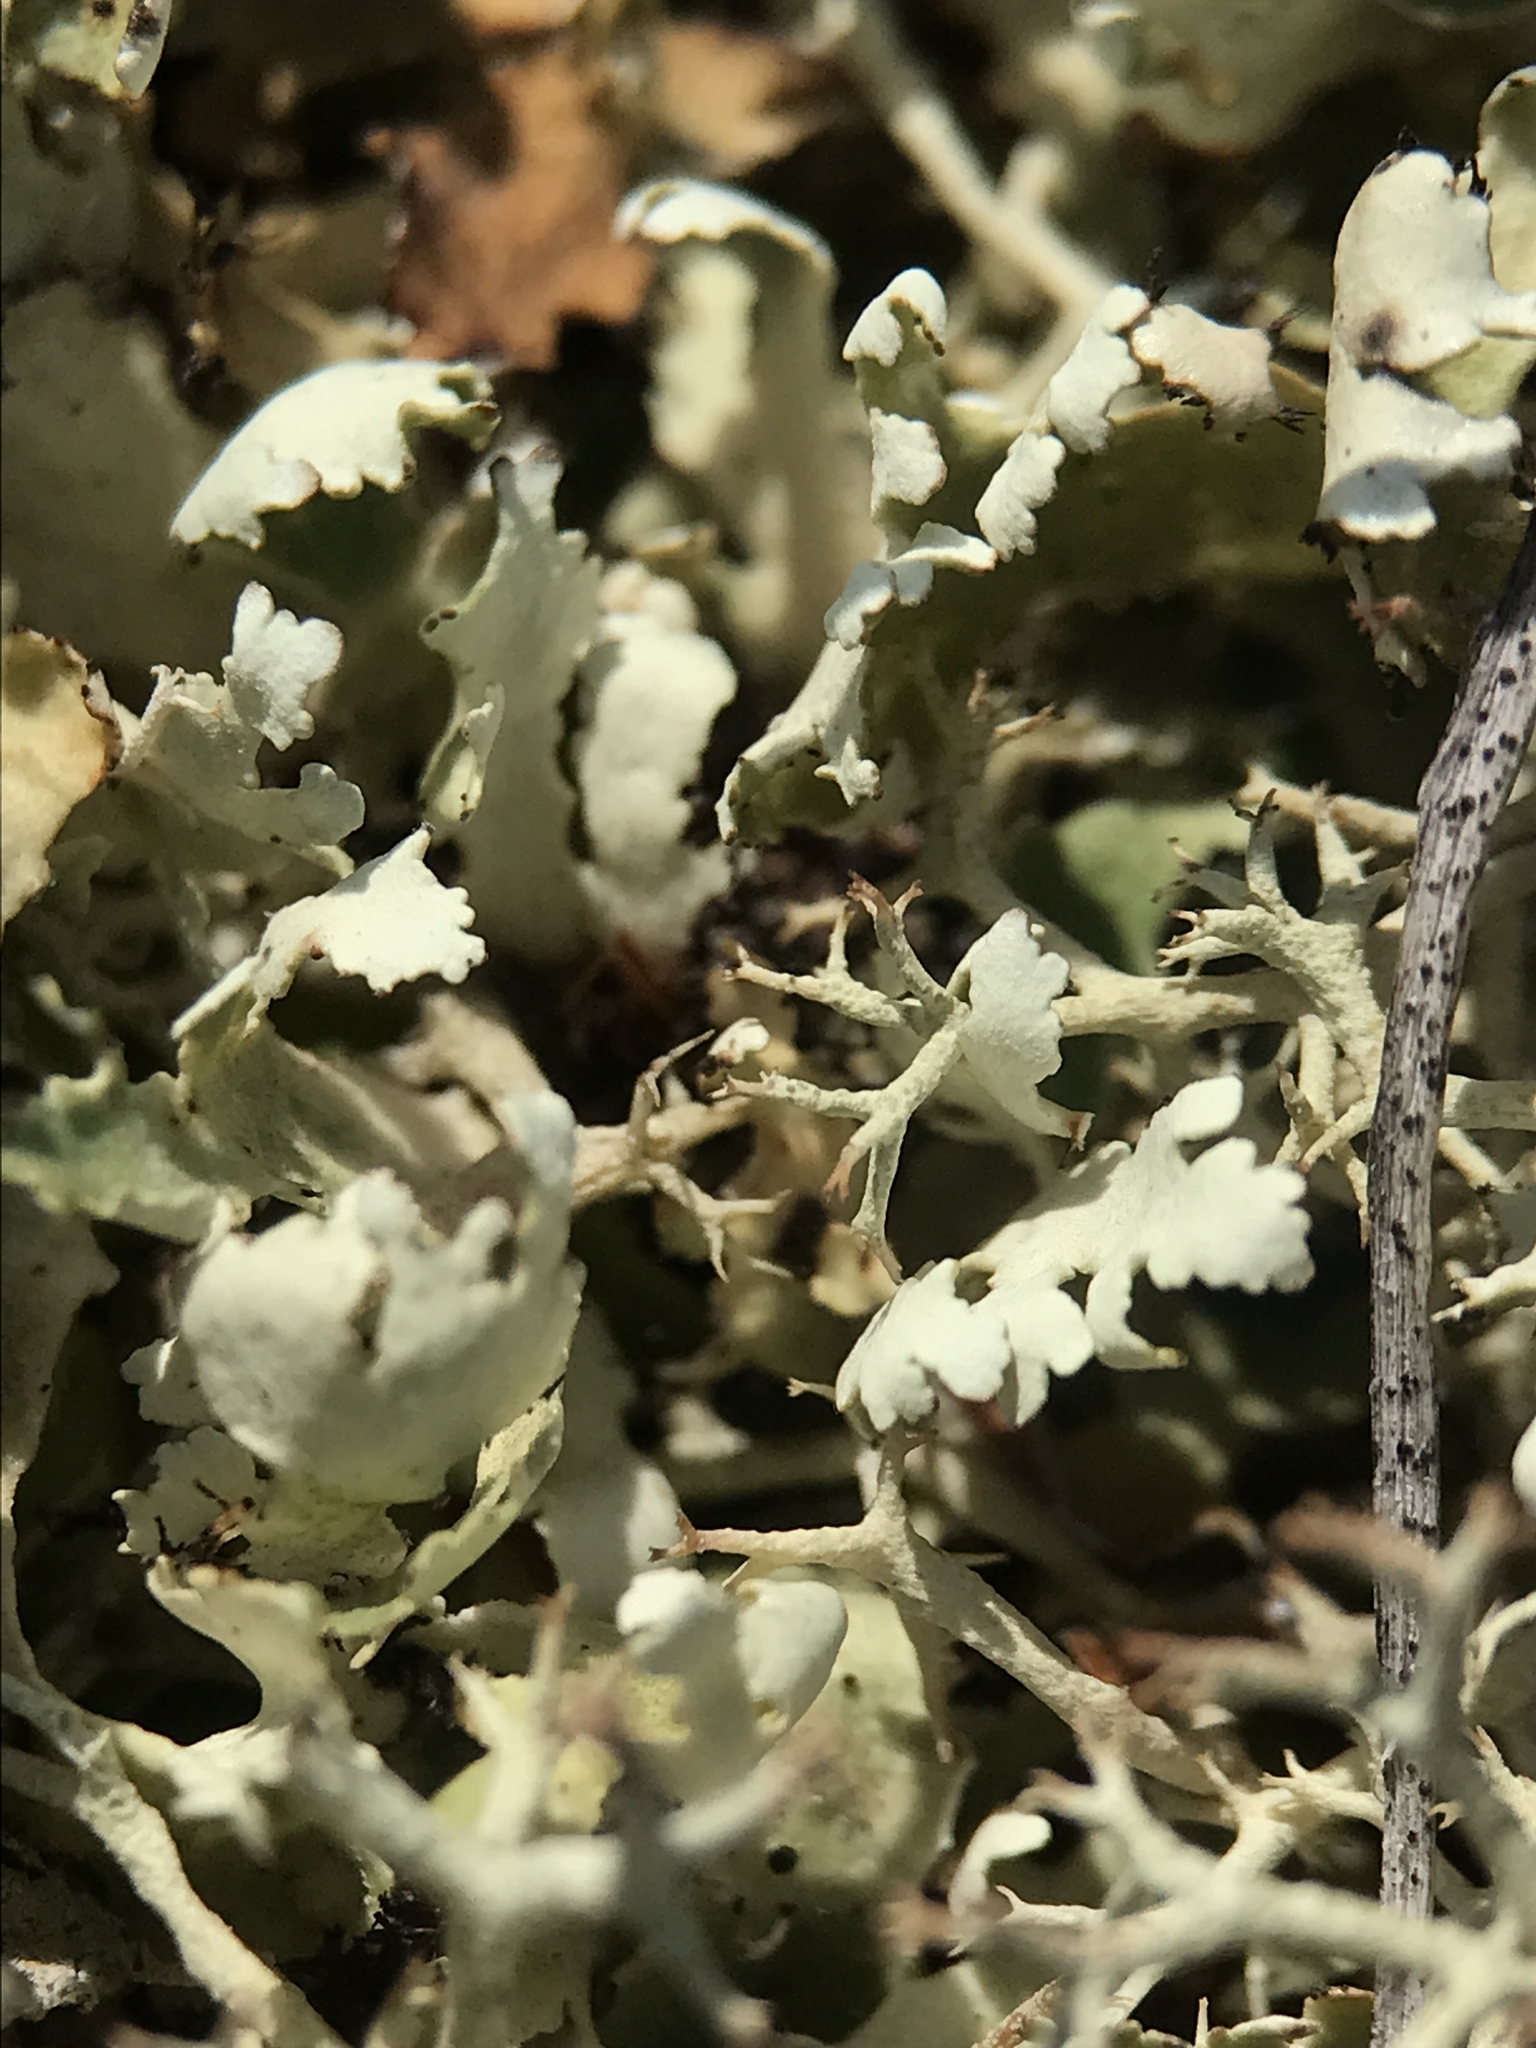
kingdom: Fungi
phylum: Ascomycota
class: Lecanoromycetes
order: Lecanorales
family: Cladoniaceae
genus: Cladonia
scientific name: Cladonia foliacea
